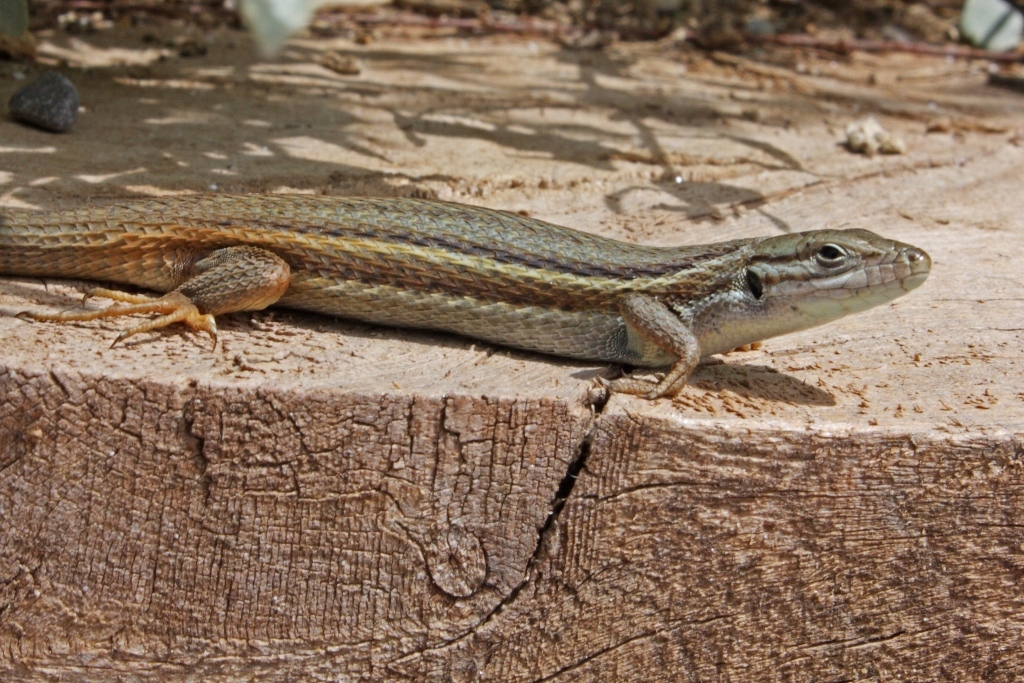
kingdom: Animalia
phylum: Chordata
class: Squamata
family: Lacertidae
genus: Psammodromus
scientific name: Psammodromus algirus
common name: Algerian psammodromus
